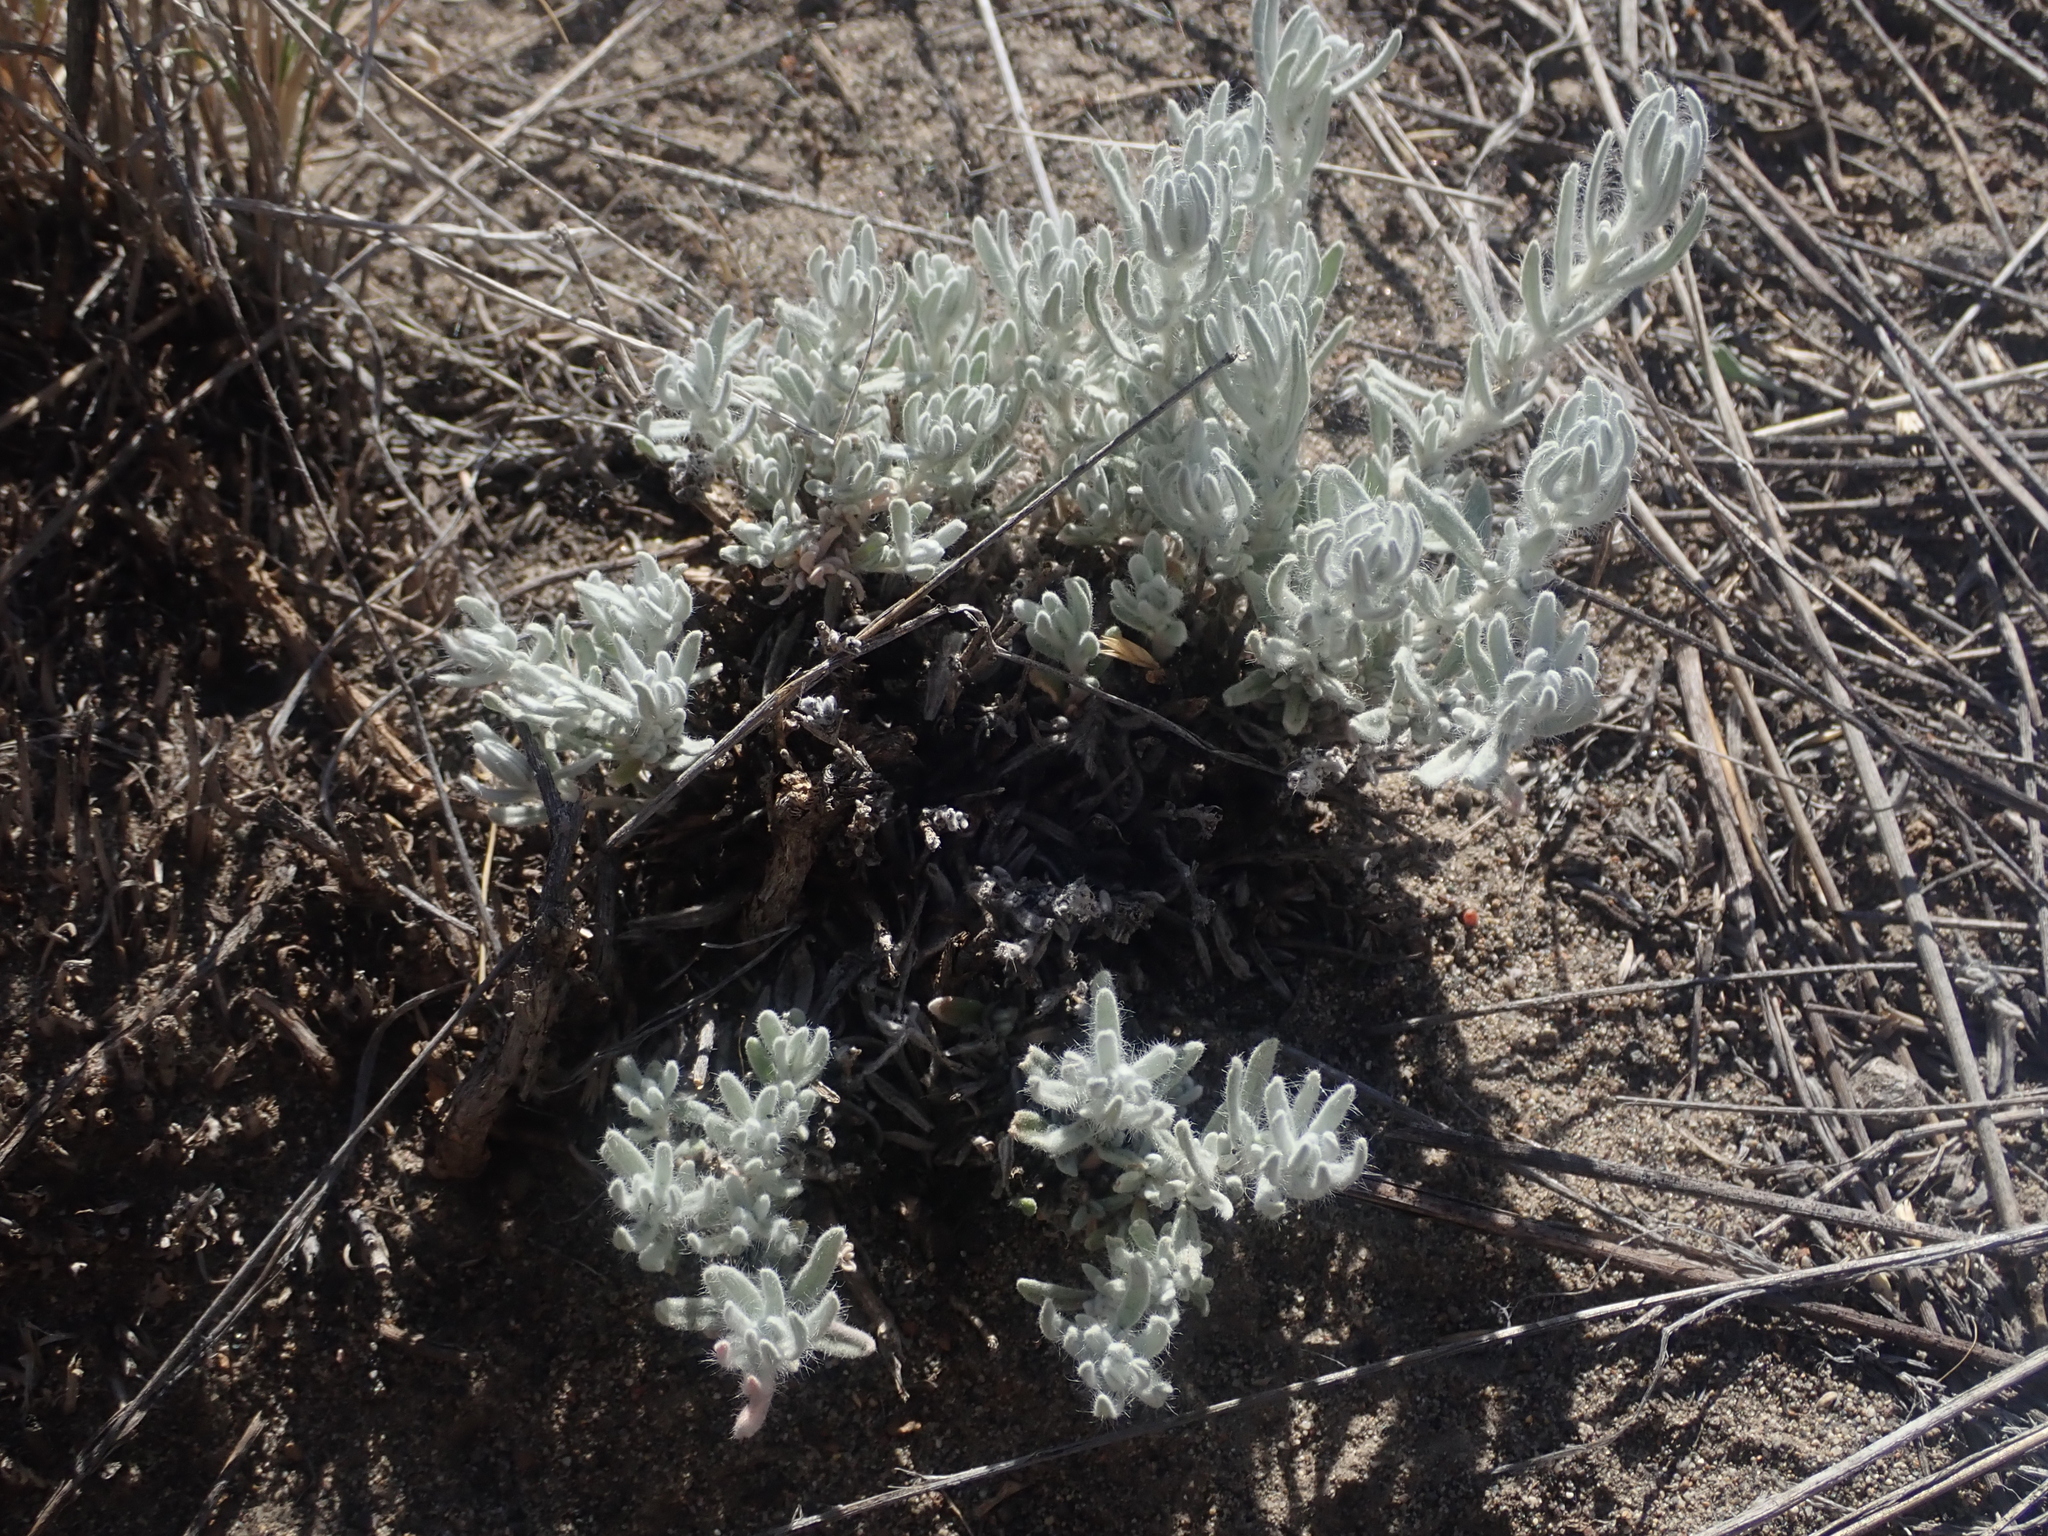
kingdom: Plantae
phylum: Tracheophyta
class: Magnoliopsida
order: Caryophyllales
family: Amaranthaceae
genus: Krascheninnikovia
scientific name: Krascheninnikovia lanata
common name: Winterfat
